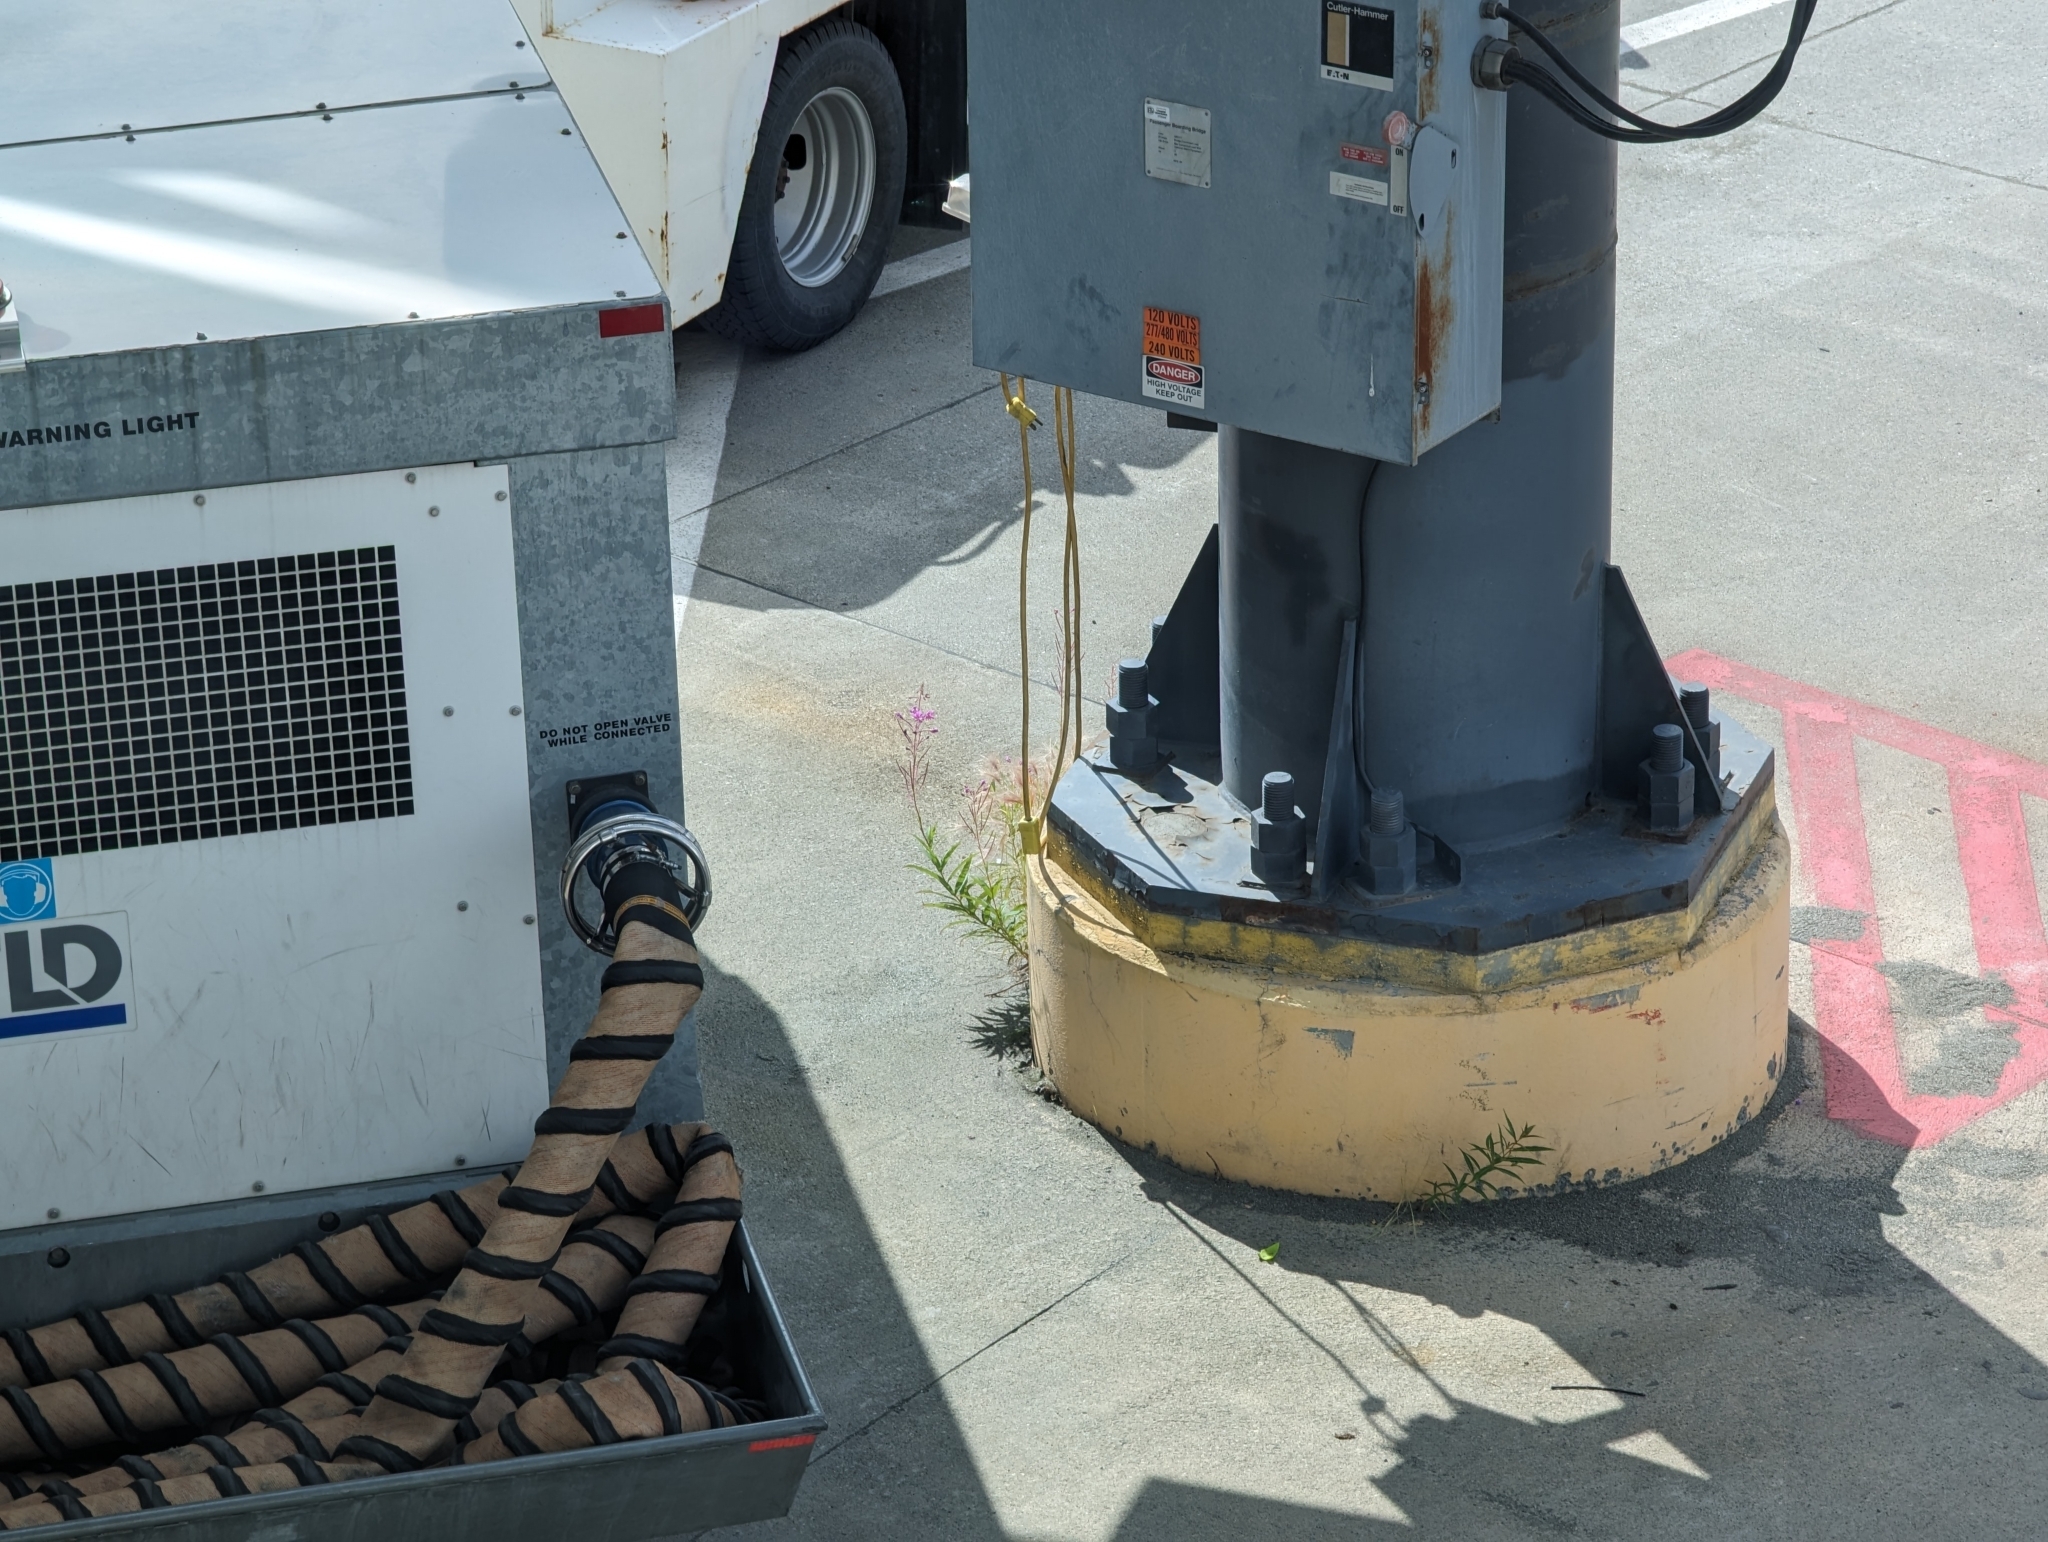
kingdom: Plantae
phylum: Tracheophyta
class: Magnoliopsida
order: Myrtales
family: Onagraceae
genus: Chamaenerion
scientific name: Chamaenerion angustifolium
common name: Fireweed
